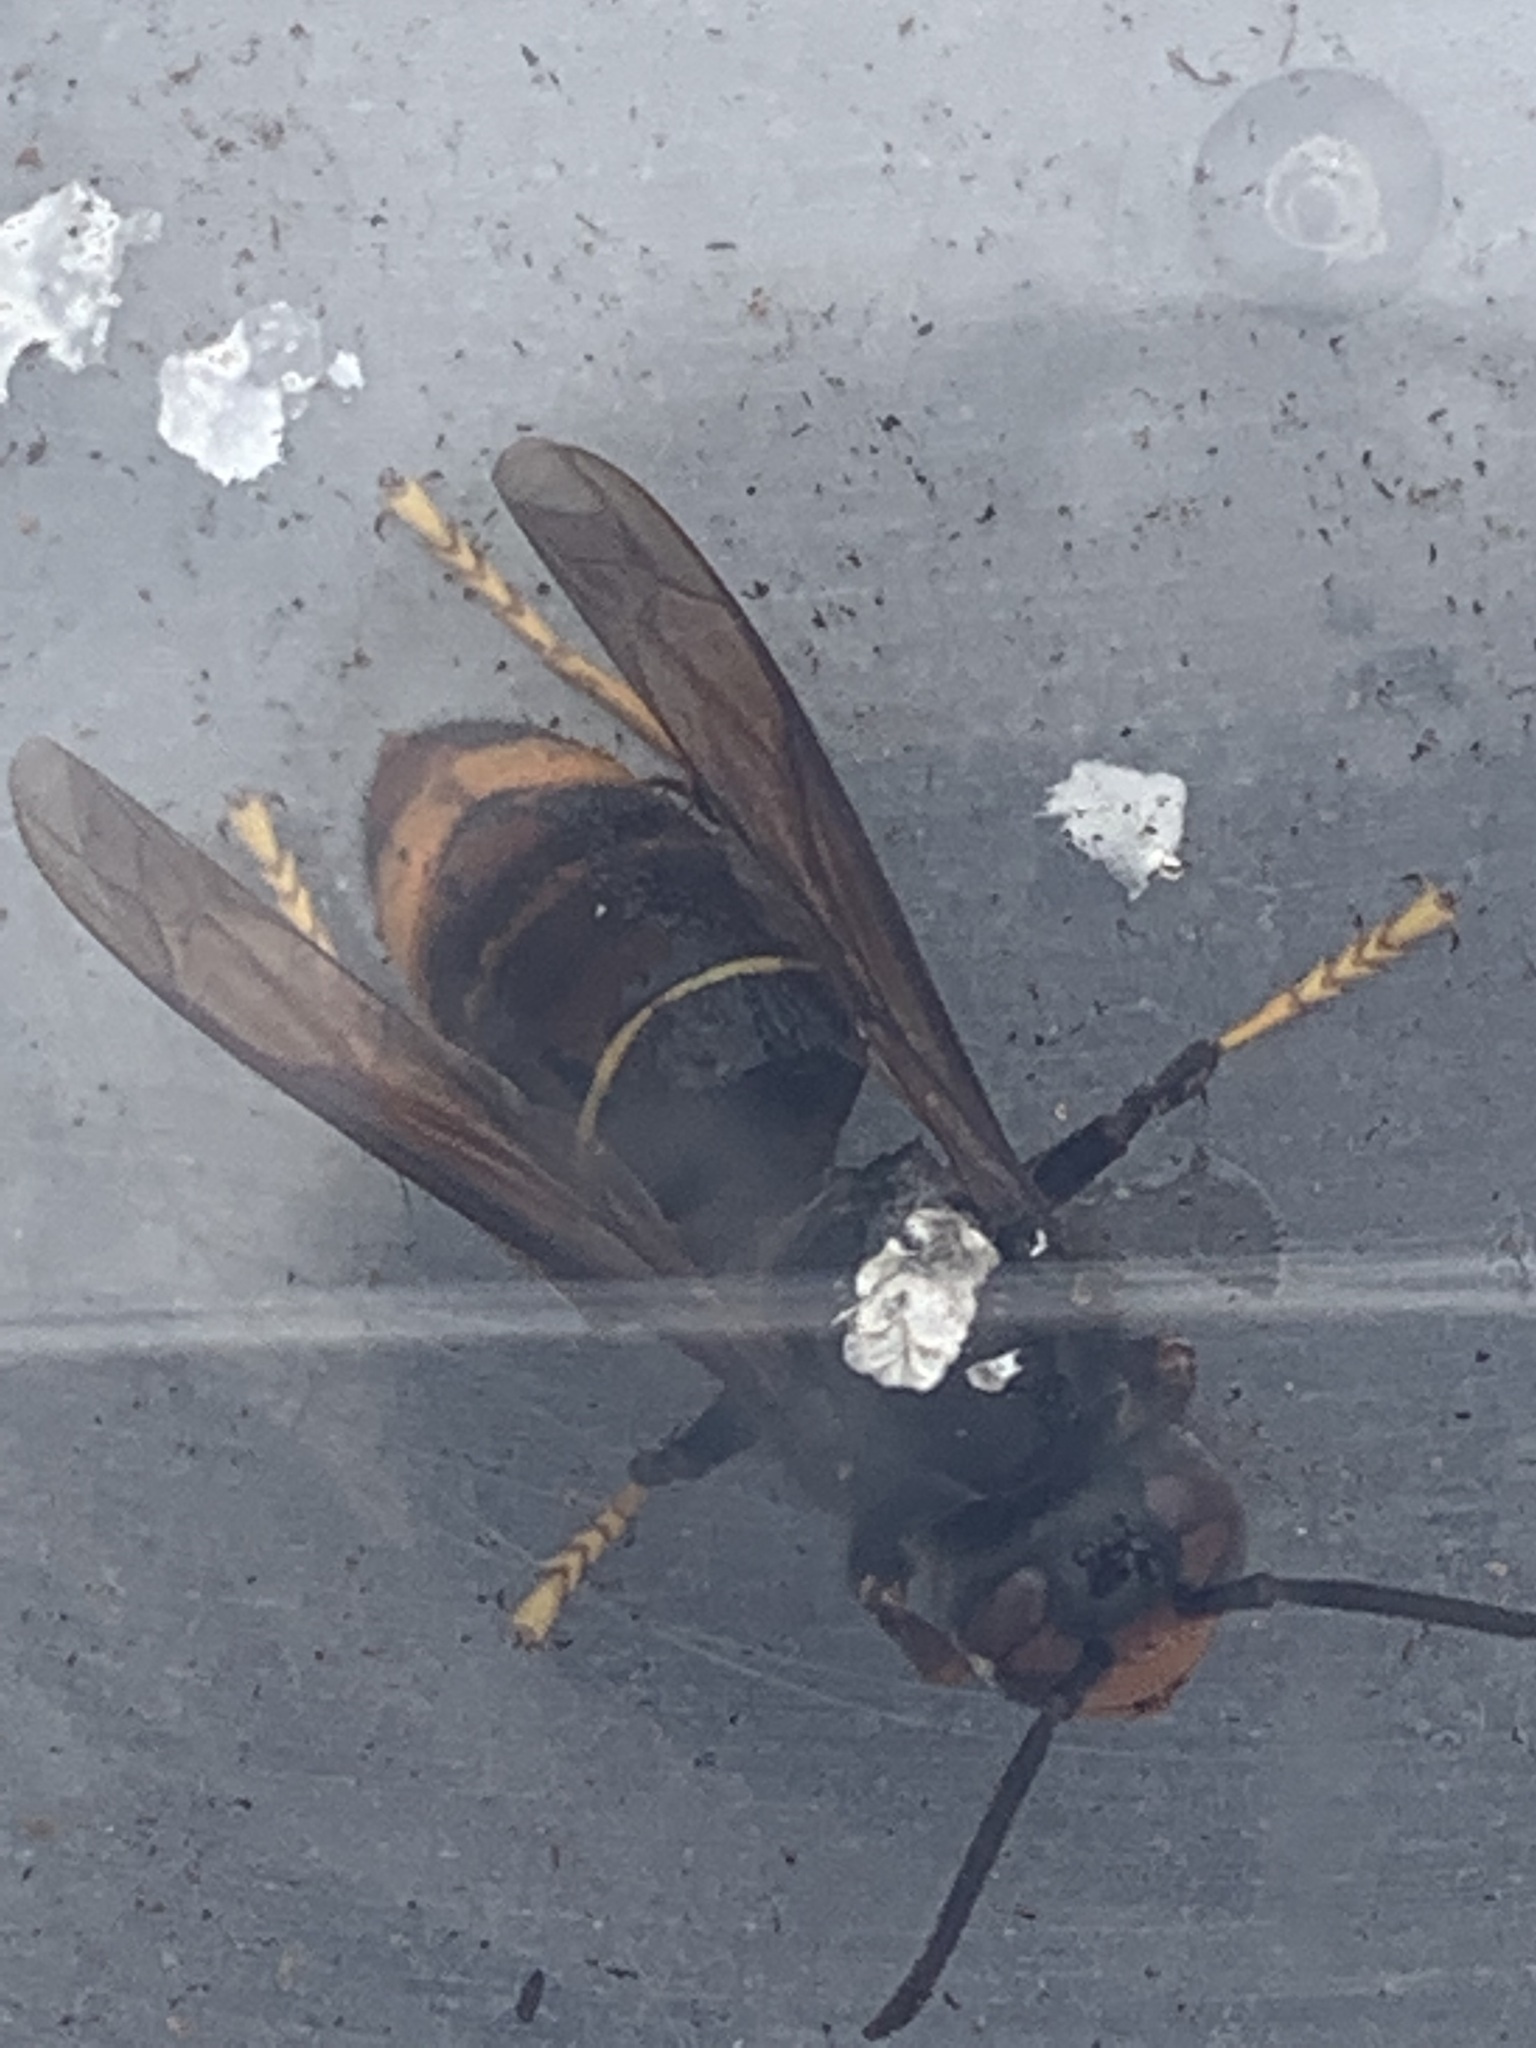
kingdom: Animalia
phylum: Arthropoda
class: Insecta
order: Hymenoptera
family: Vespidae
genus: Vespa
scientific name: Vespa velutina
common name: Asian hornet
